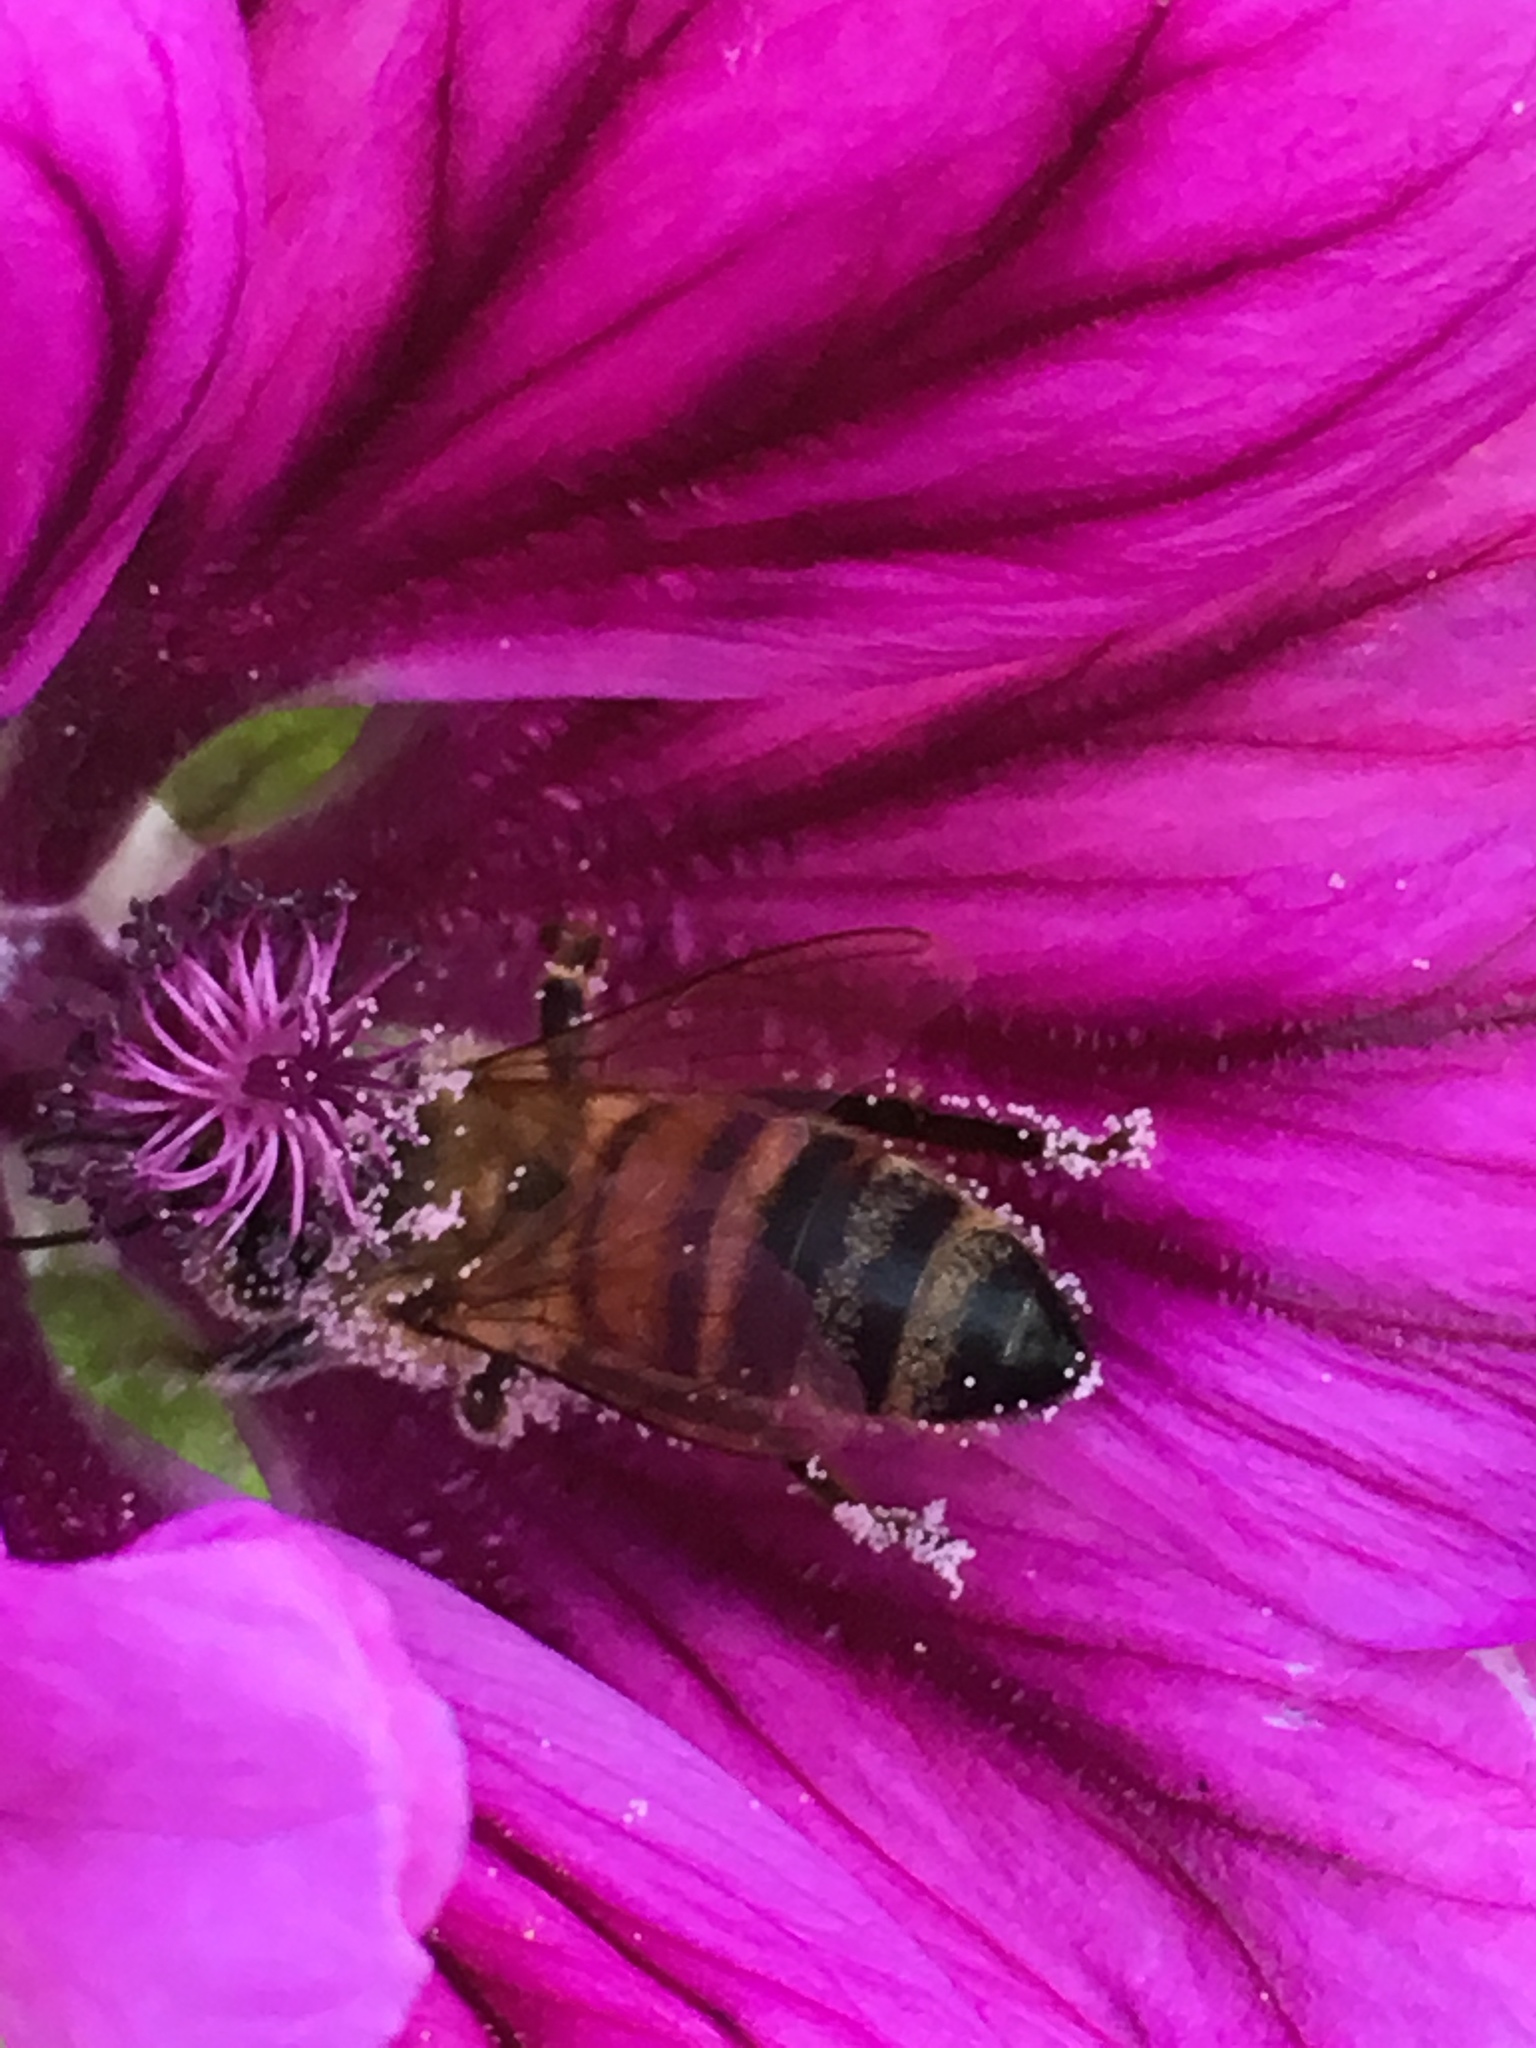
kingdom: Animalia
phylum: Arthropoda
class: Insecta
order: Hymenoptera
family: Apidae
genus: Apis
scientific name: Apis mellifera
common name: Honey bee
